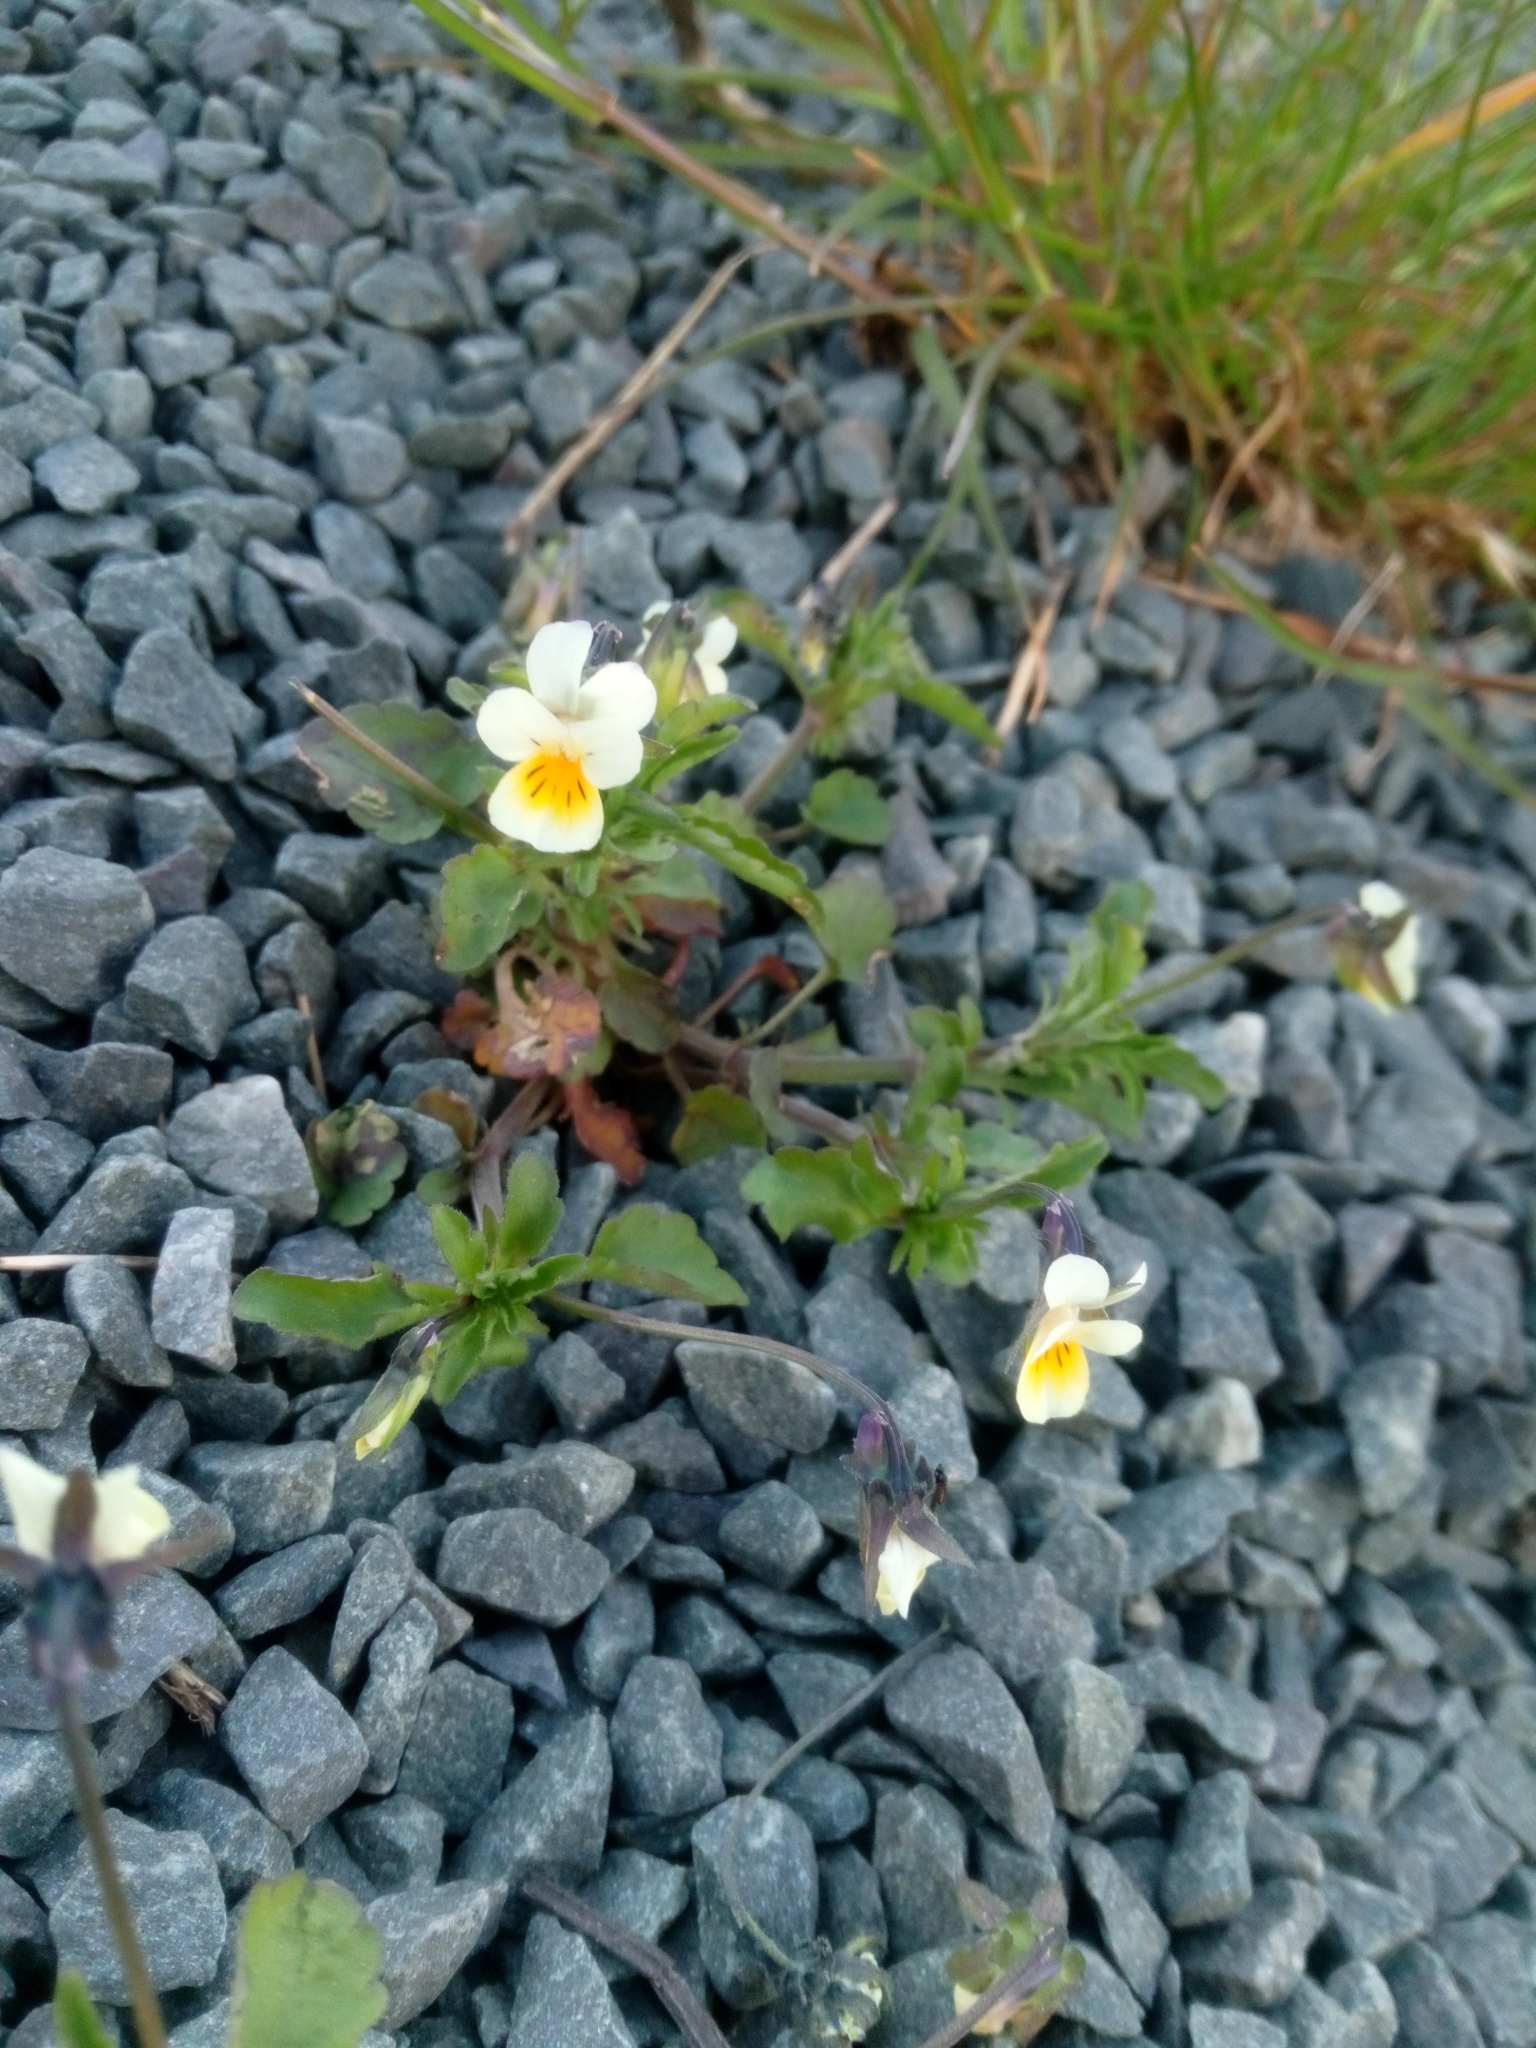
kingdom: Plantae
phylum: Tracheophyta
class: Magnoliopsida
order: Malpighiales
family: Violaceae
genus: Viola
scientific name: Viola arvensis
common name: Field pansy
